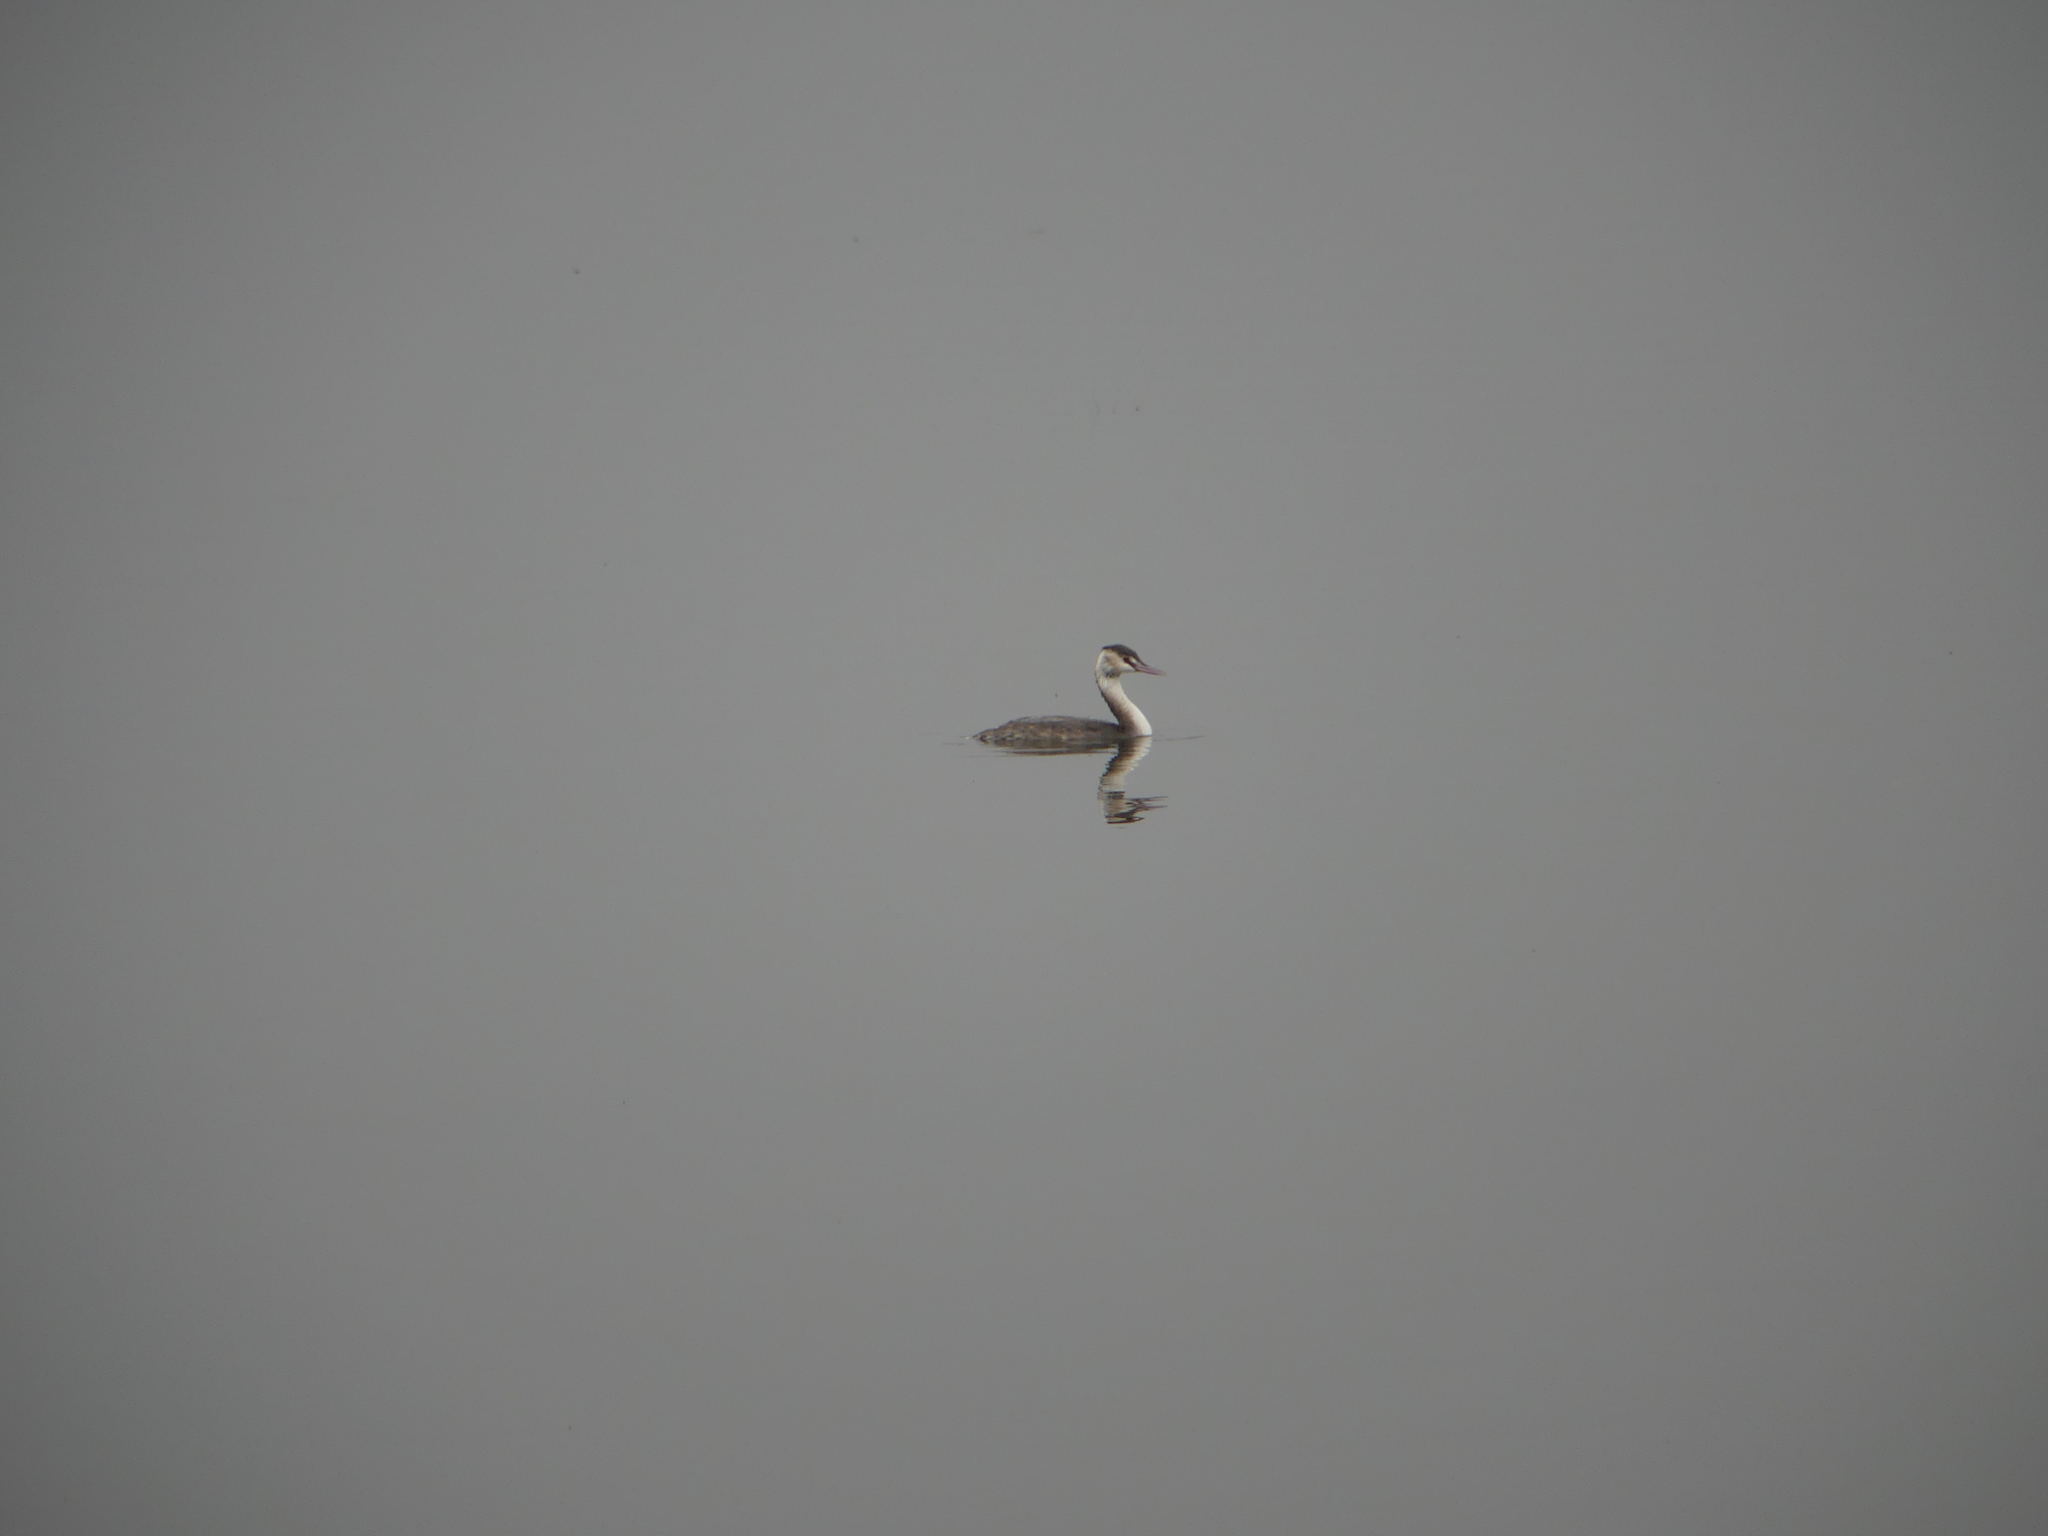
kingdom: Animalia
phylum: Chordata
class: Aves
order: Podicipediformes
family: Podicipedidae
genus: Podiceps
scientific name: Podiceps cristatus
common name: Great crested grebe
